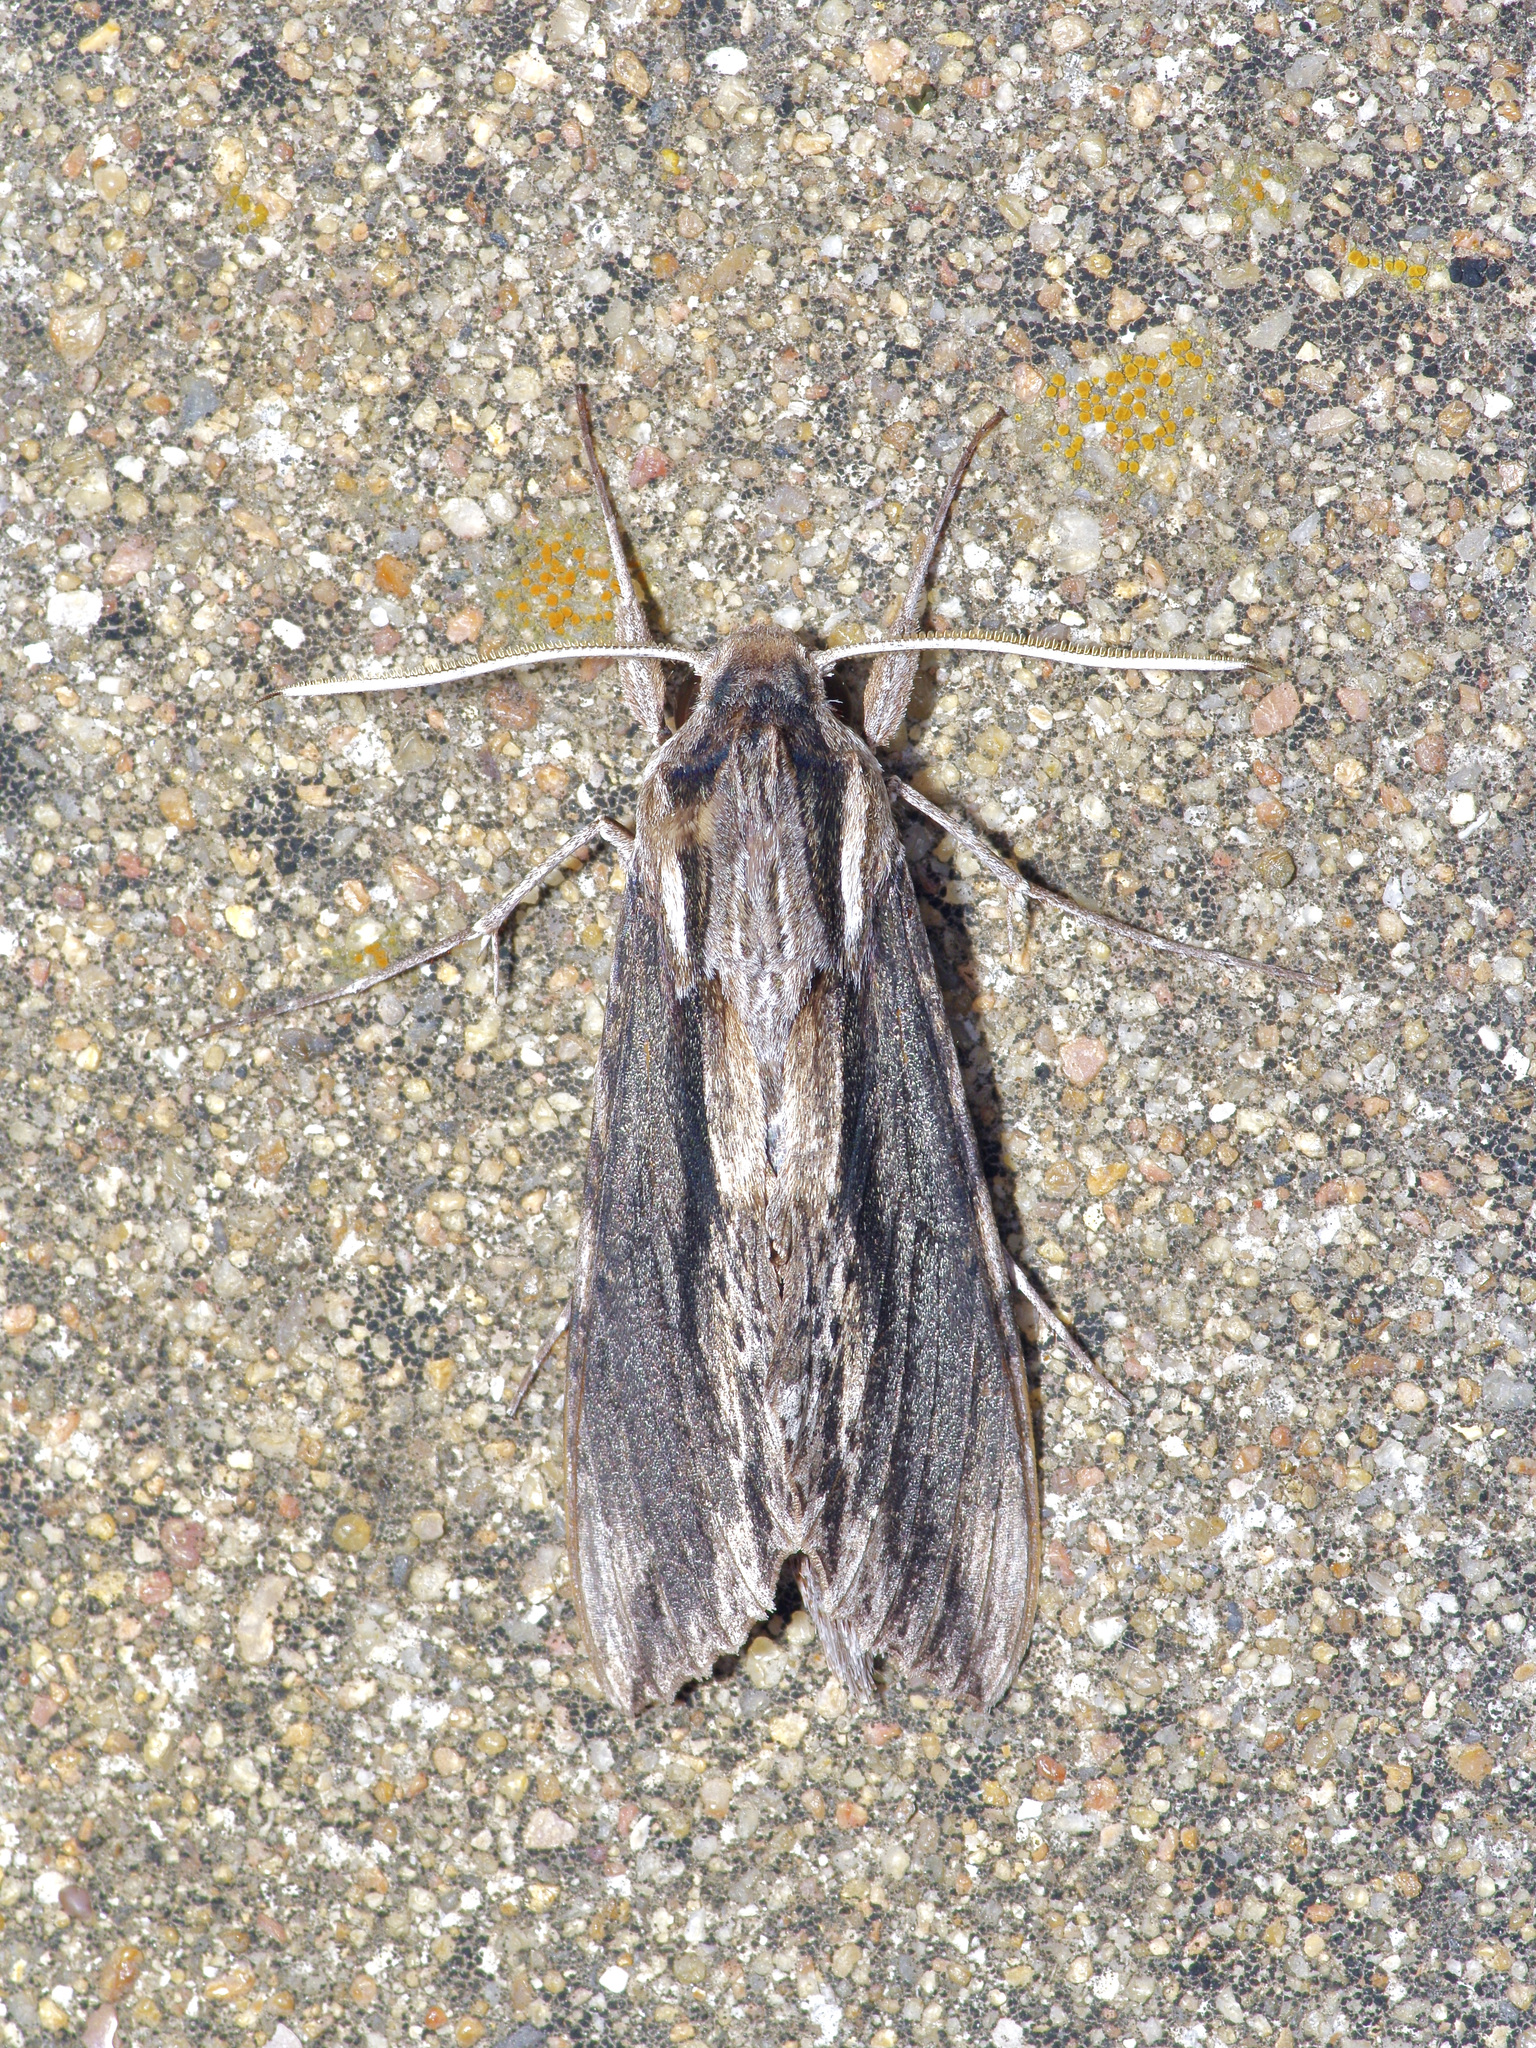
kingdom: Animalia
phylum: Arthropoda
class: Insecta
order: Lepidoptera
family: Sphingidae
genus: Erinnyis
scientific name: Erinnyis obscura
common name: Obscure sphinx
